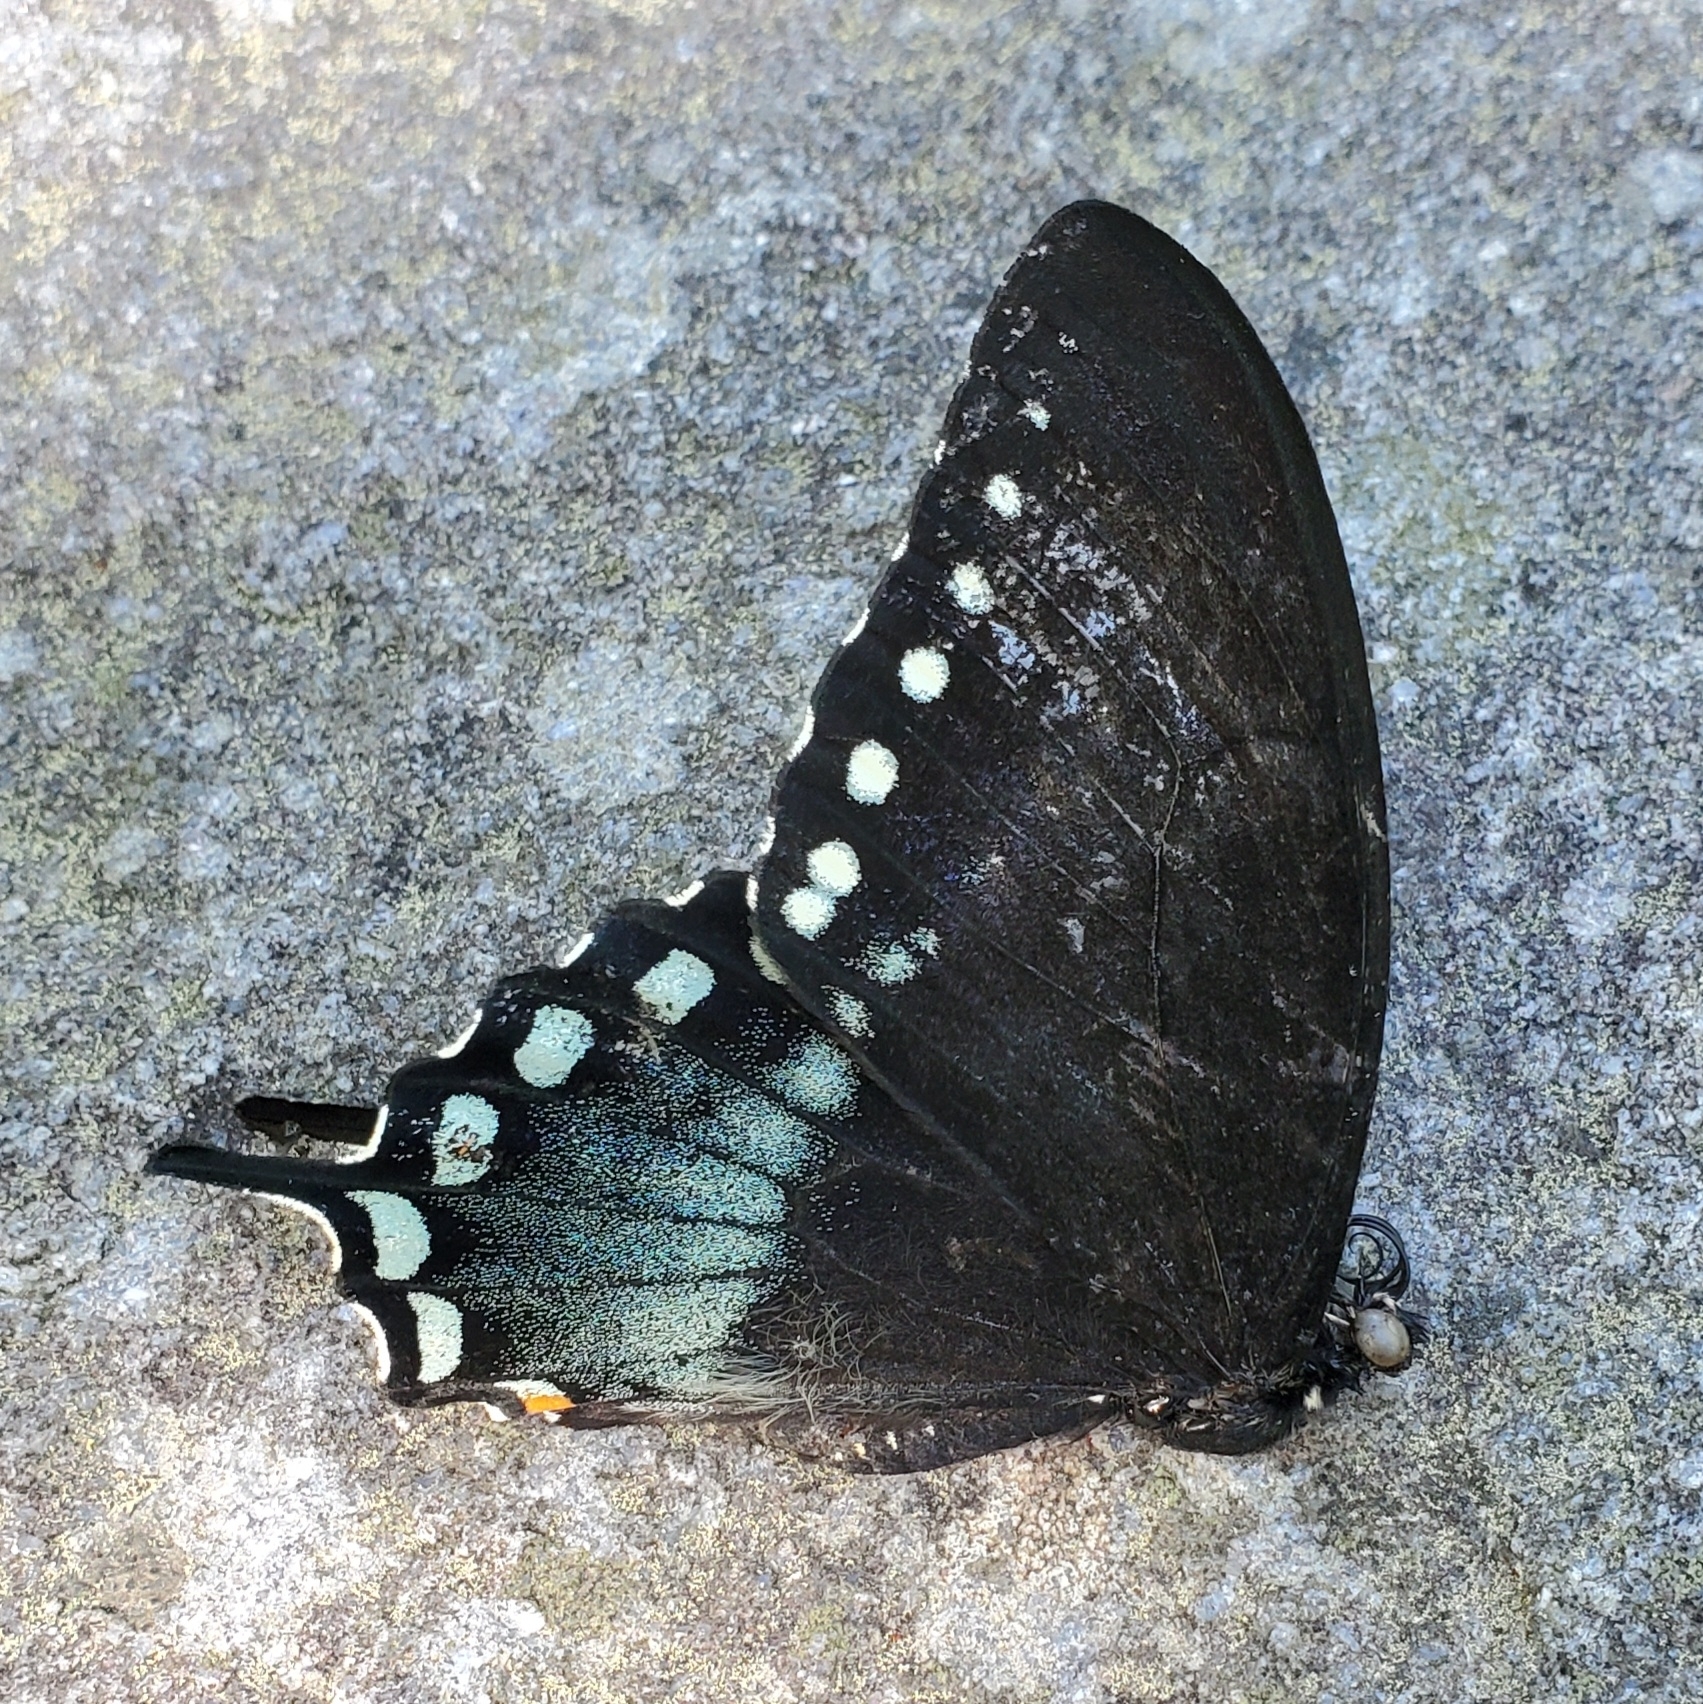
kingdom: Animalia
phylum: Arthropoda
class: Insecta
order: Lepidoptera
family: Papilionidae
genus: Papilio
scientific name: Papilio troilus
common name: Spicebush swallowtail
